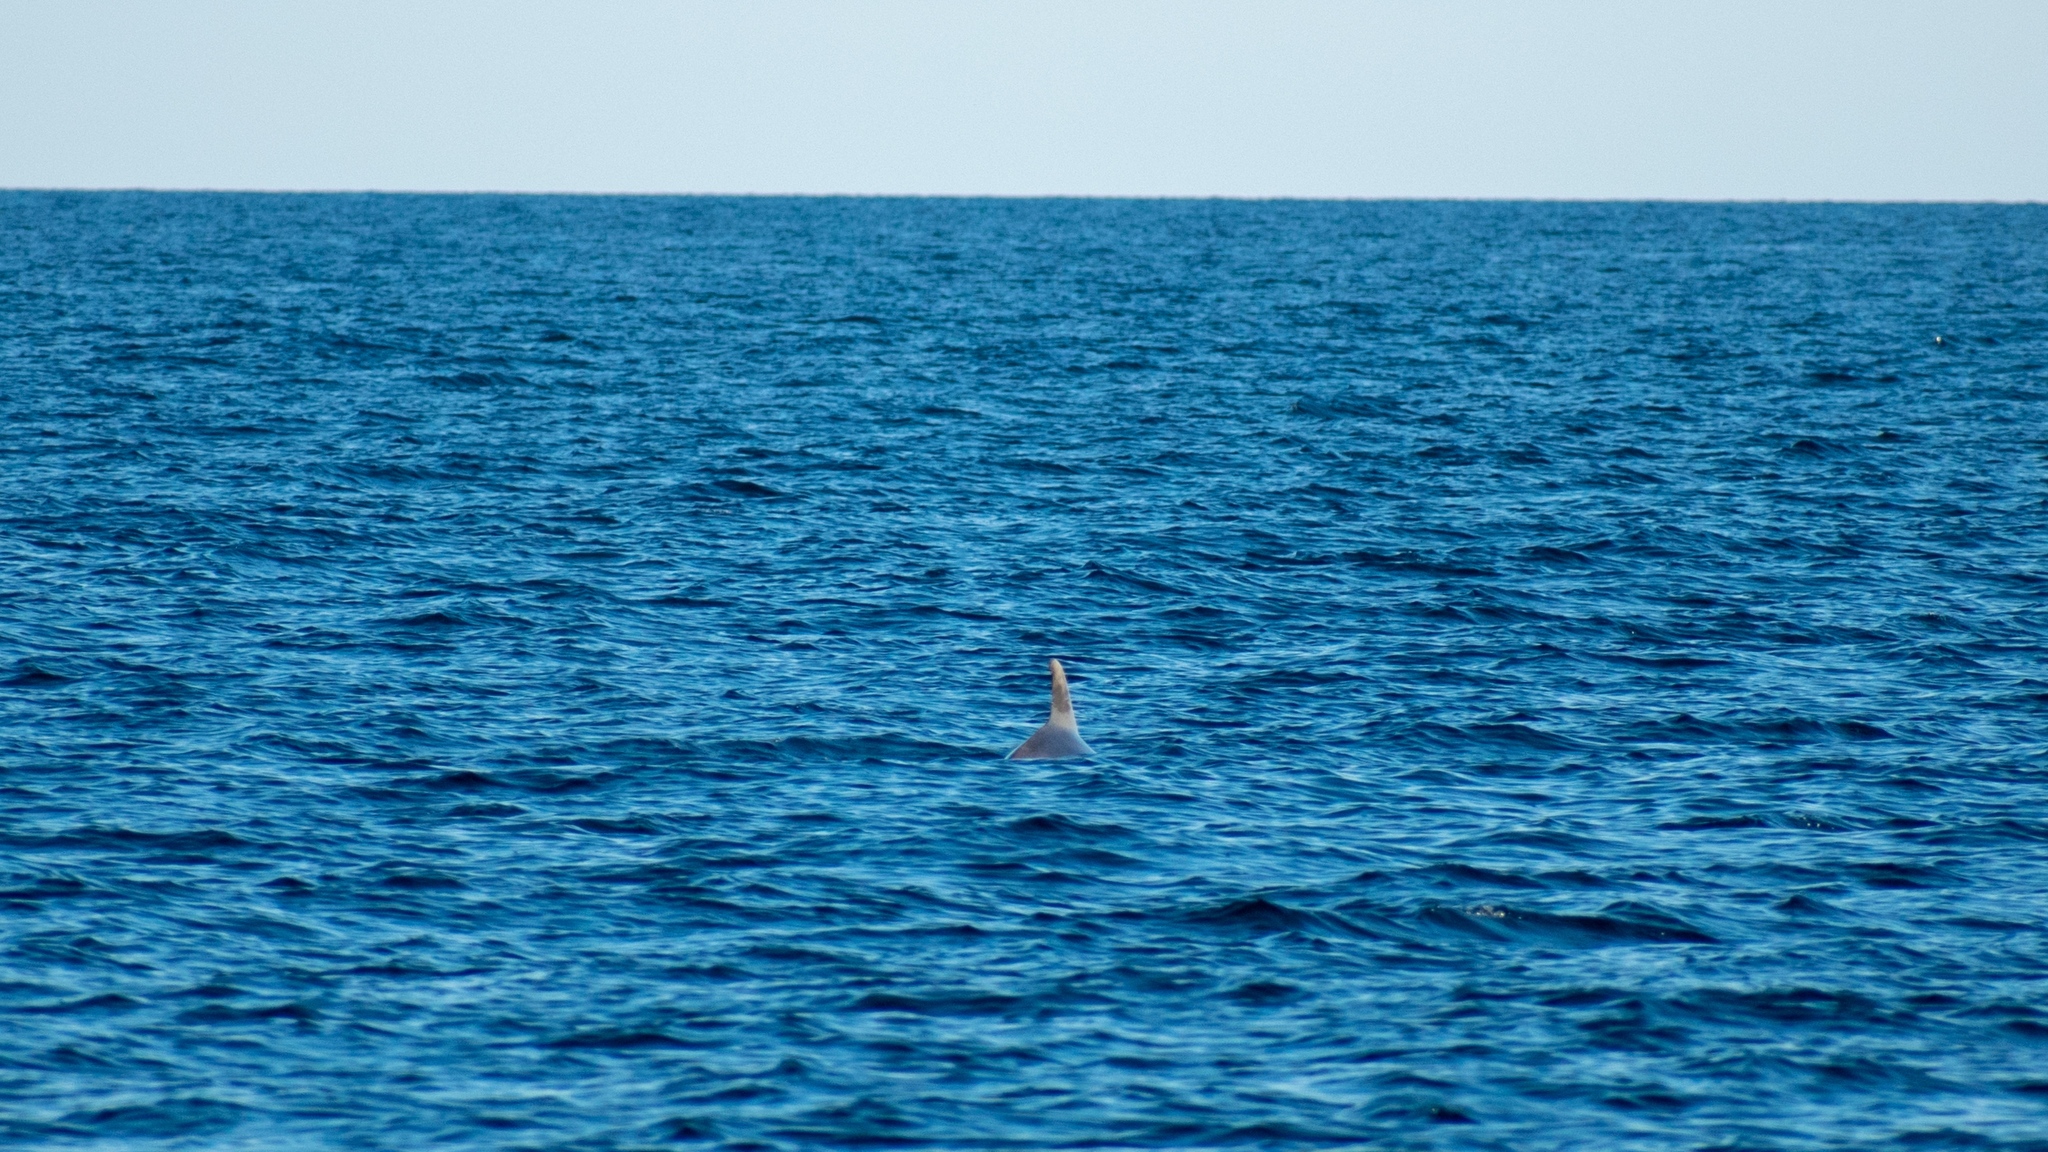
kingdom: Animalia
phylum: Chordata
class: Mammalia
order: Cetacea
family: Delphinidae
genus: Tursiops
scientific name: Tursiops truncatus
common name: Bottlenose dolphin
